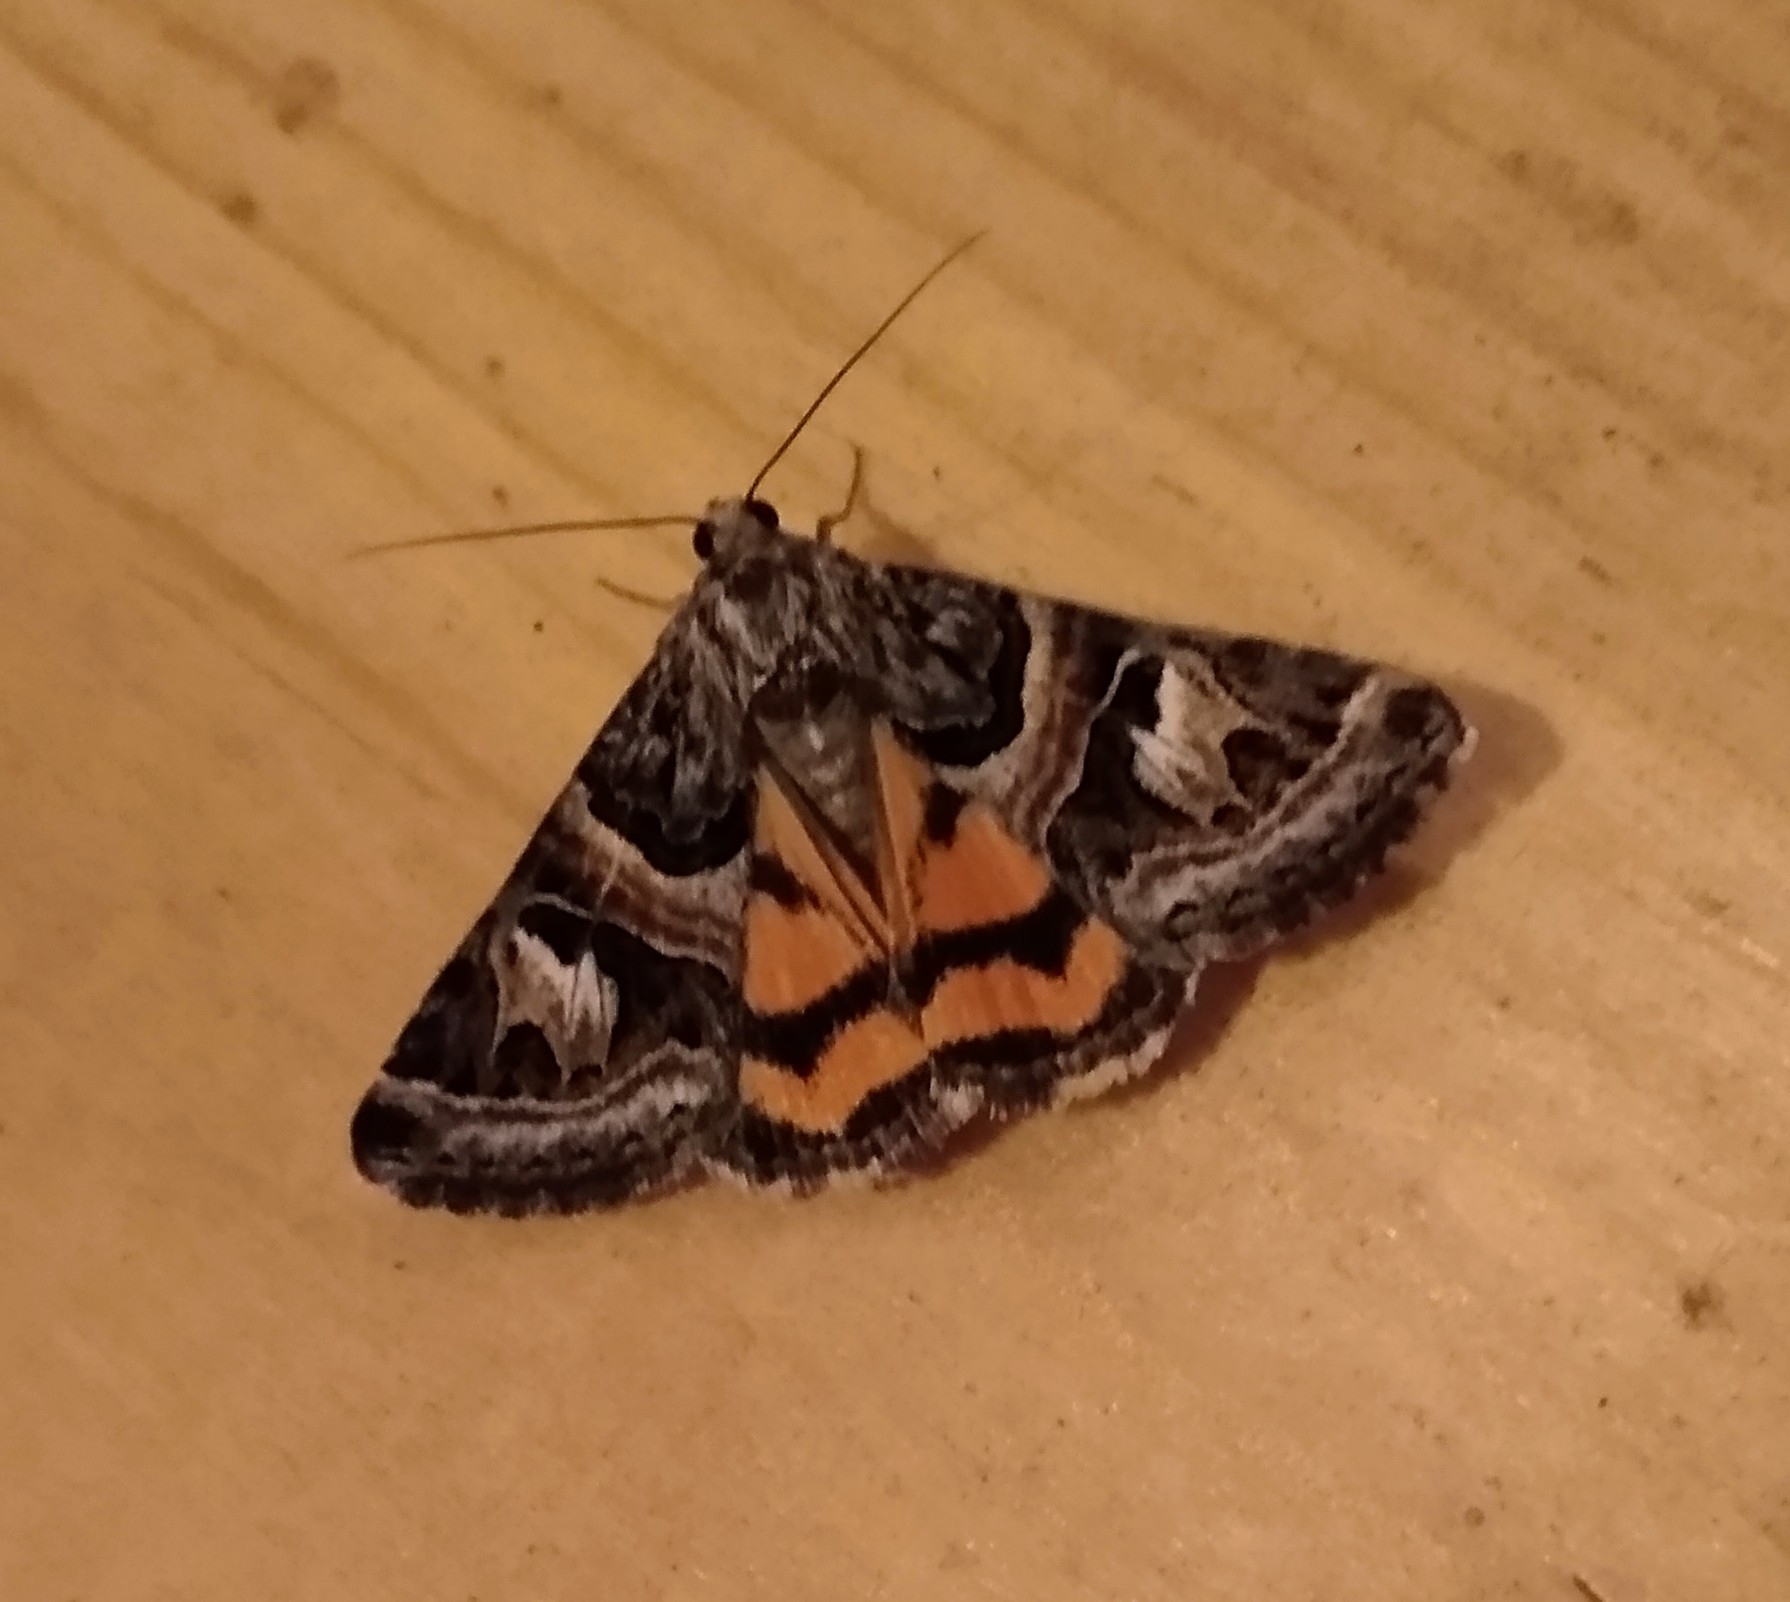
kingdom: Animalia
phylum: Arthropoda
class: Insecta
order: Lepidoptera
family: Erebidae
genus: Drasteria
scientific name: Drasteria mirifica
